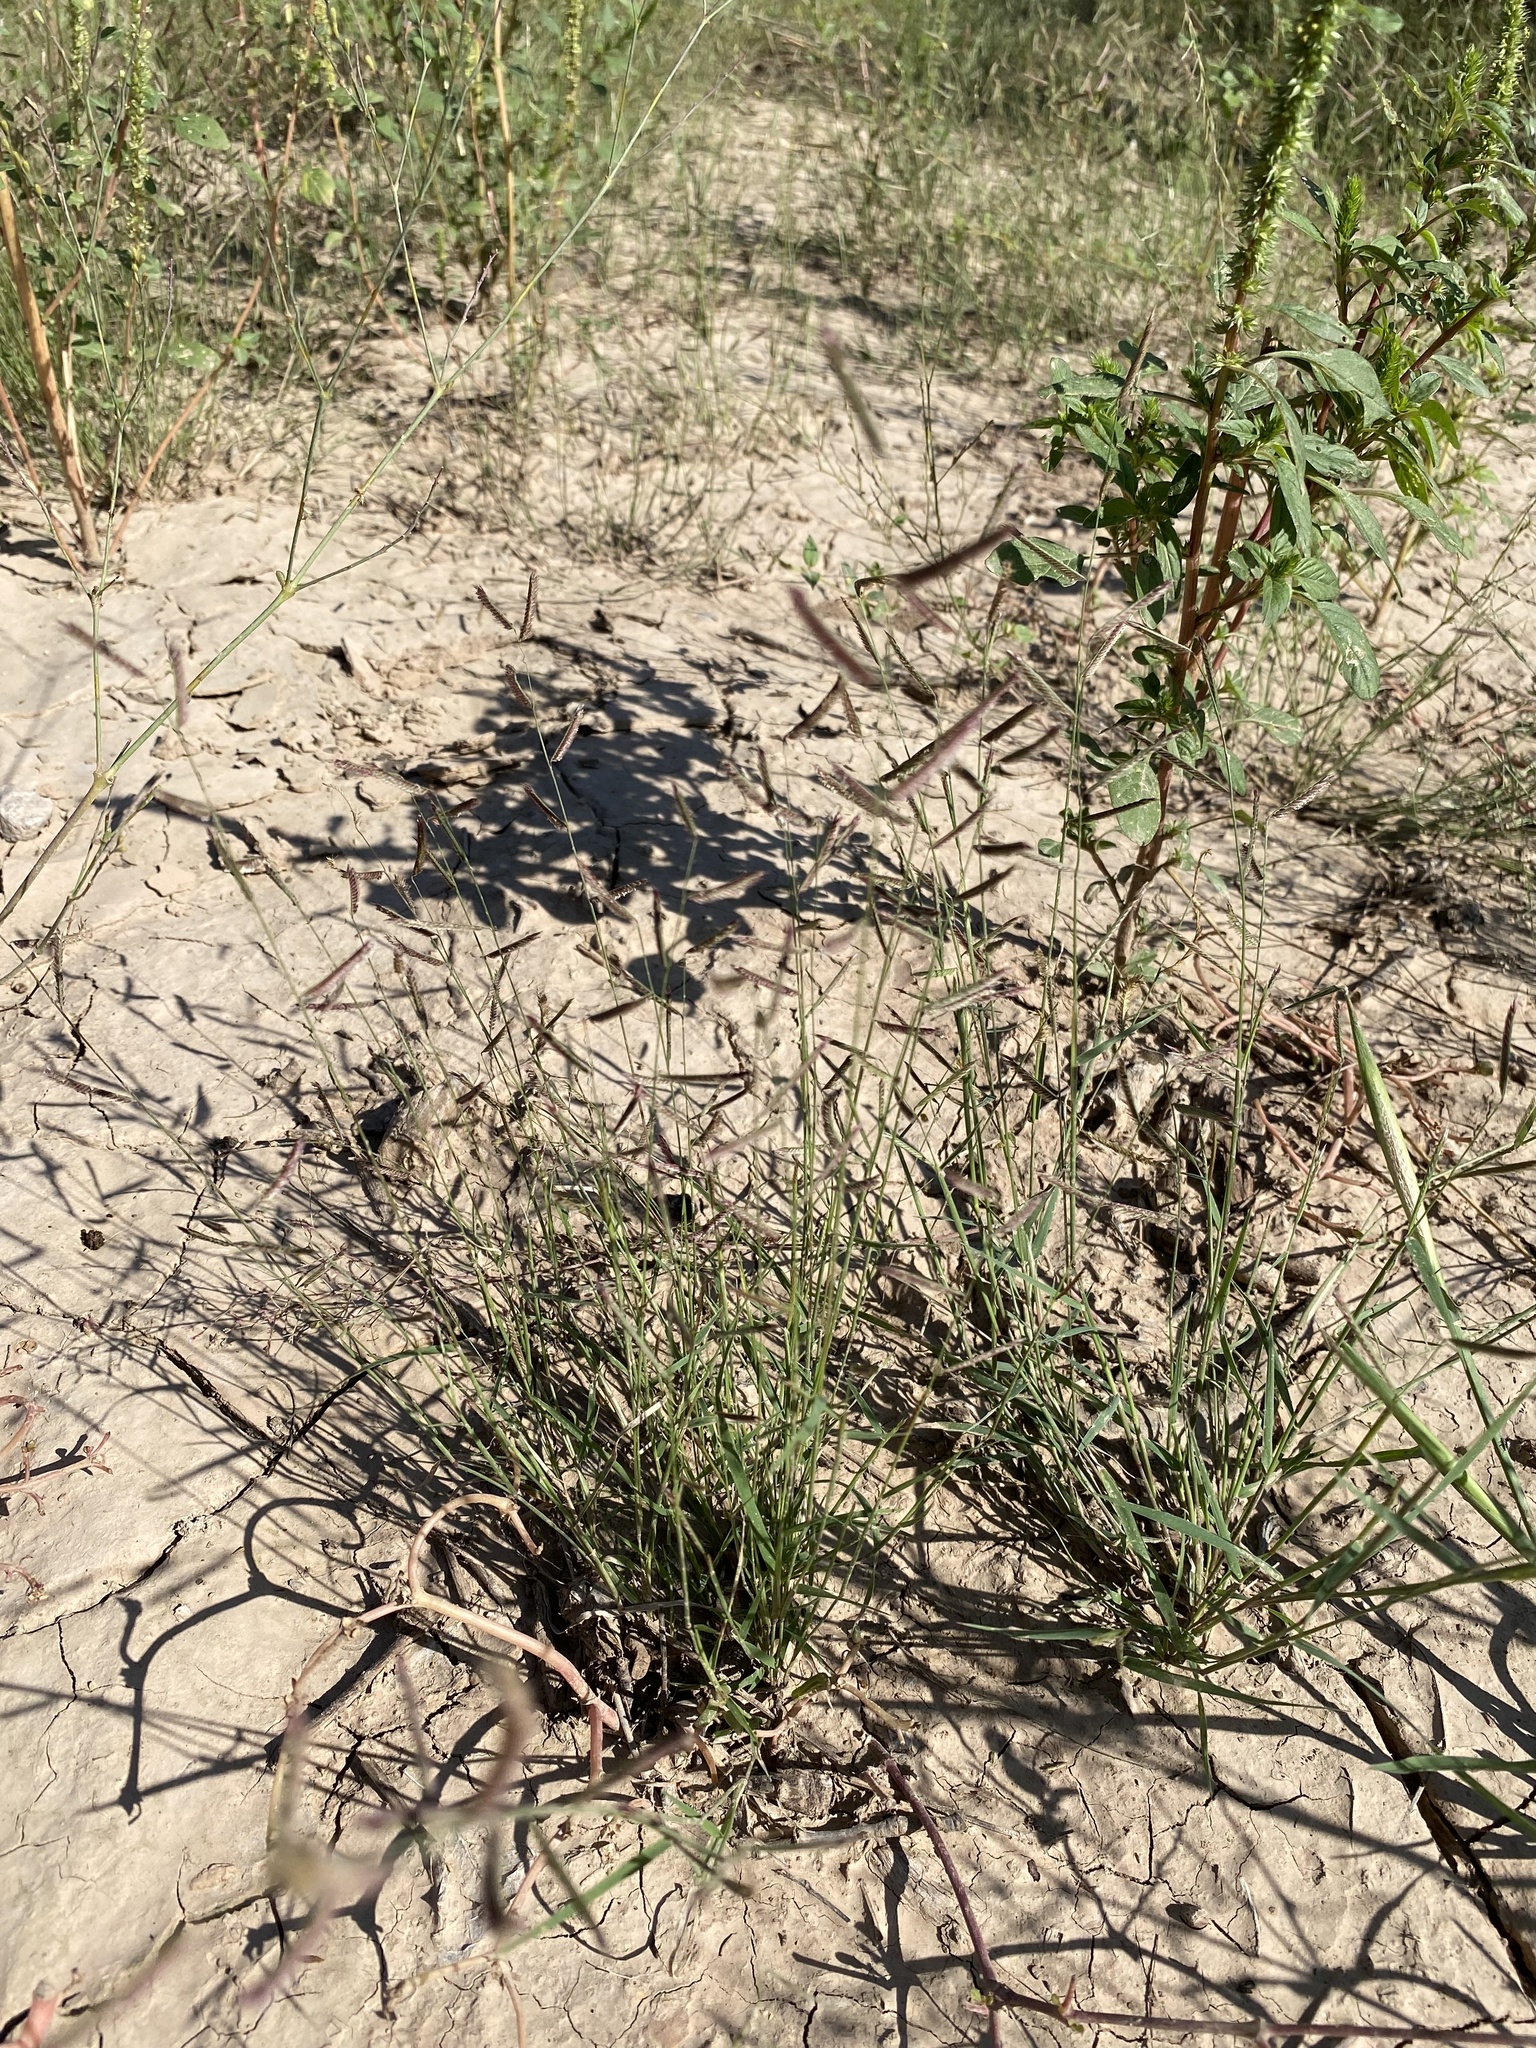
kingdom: Plantae
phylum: Tracheophyta
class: Liliopsida
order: Poales
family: Poaceae
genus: Bouteloua
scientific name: Bouteloua barbata
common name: Six-weeks grama
